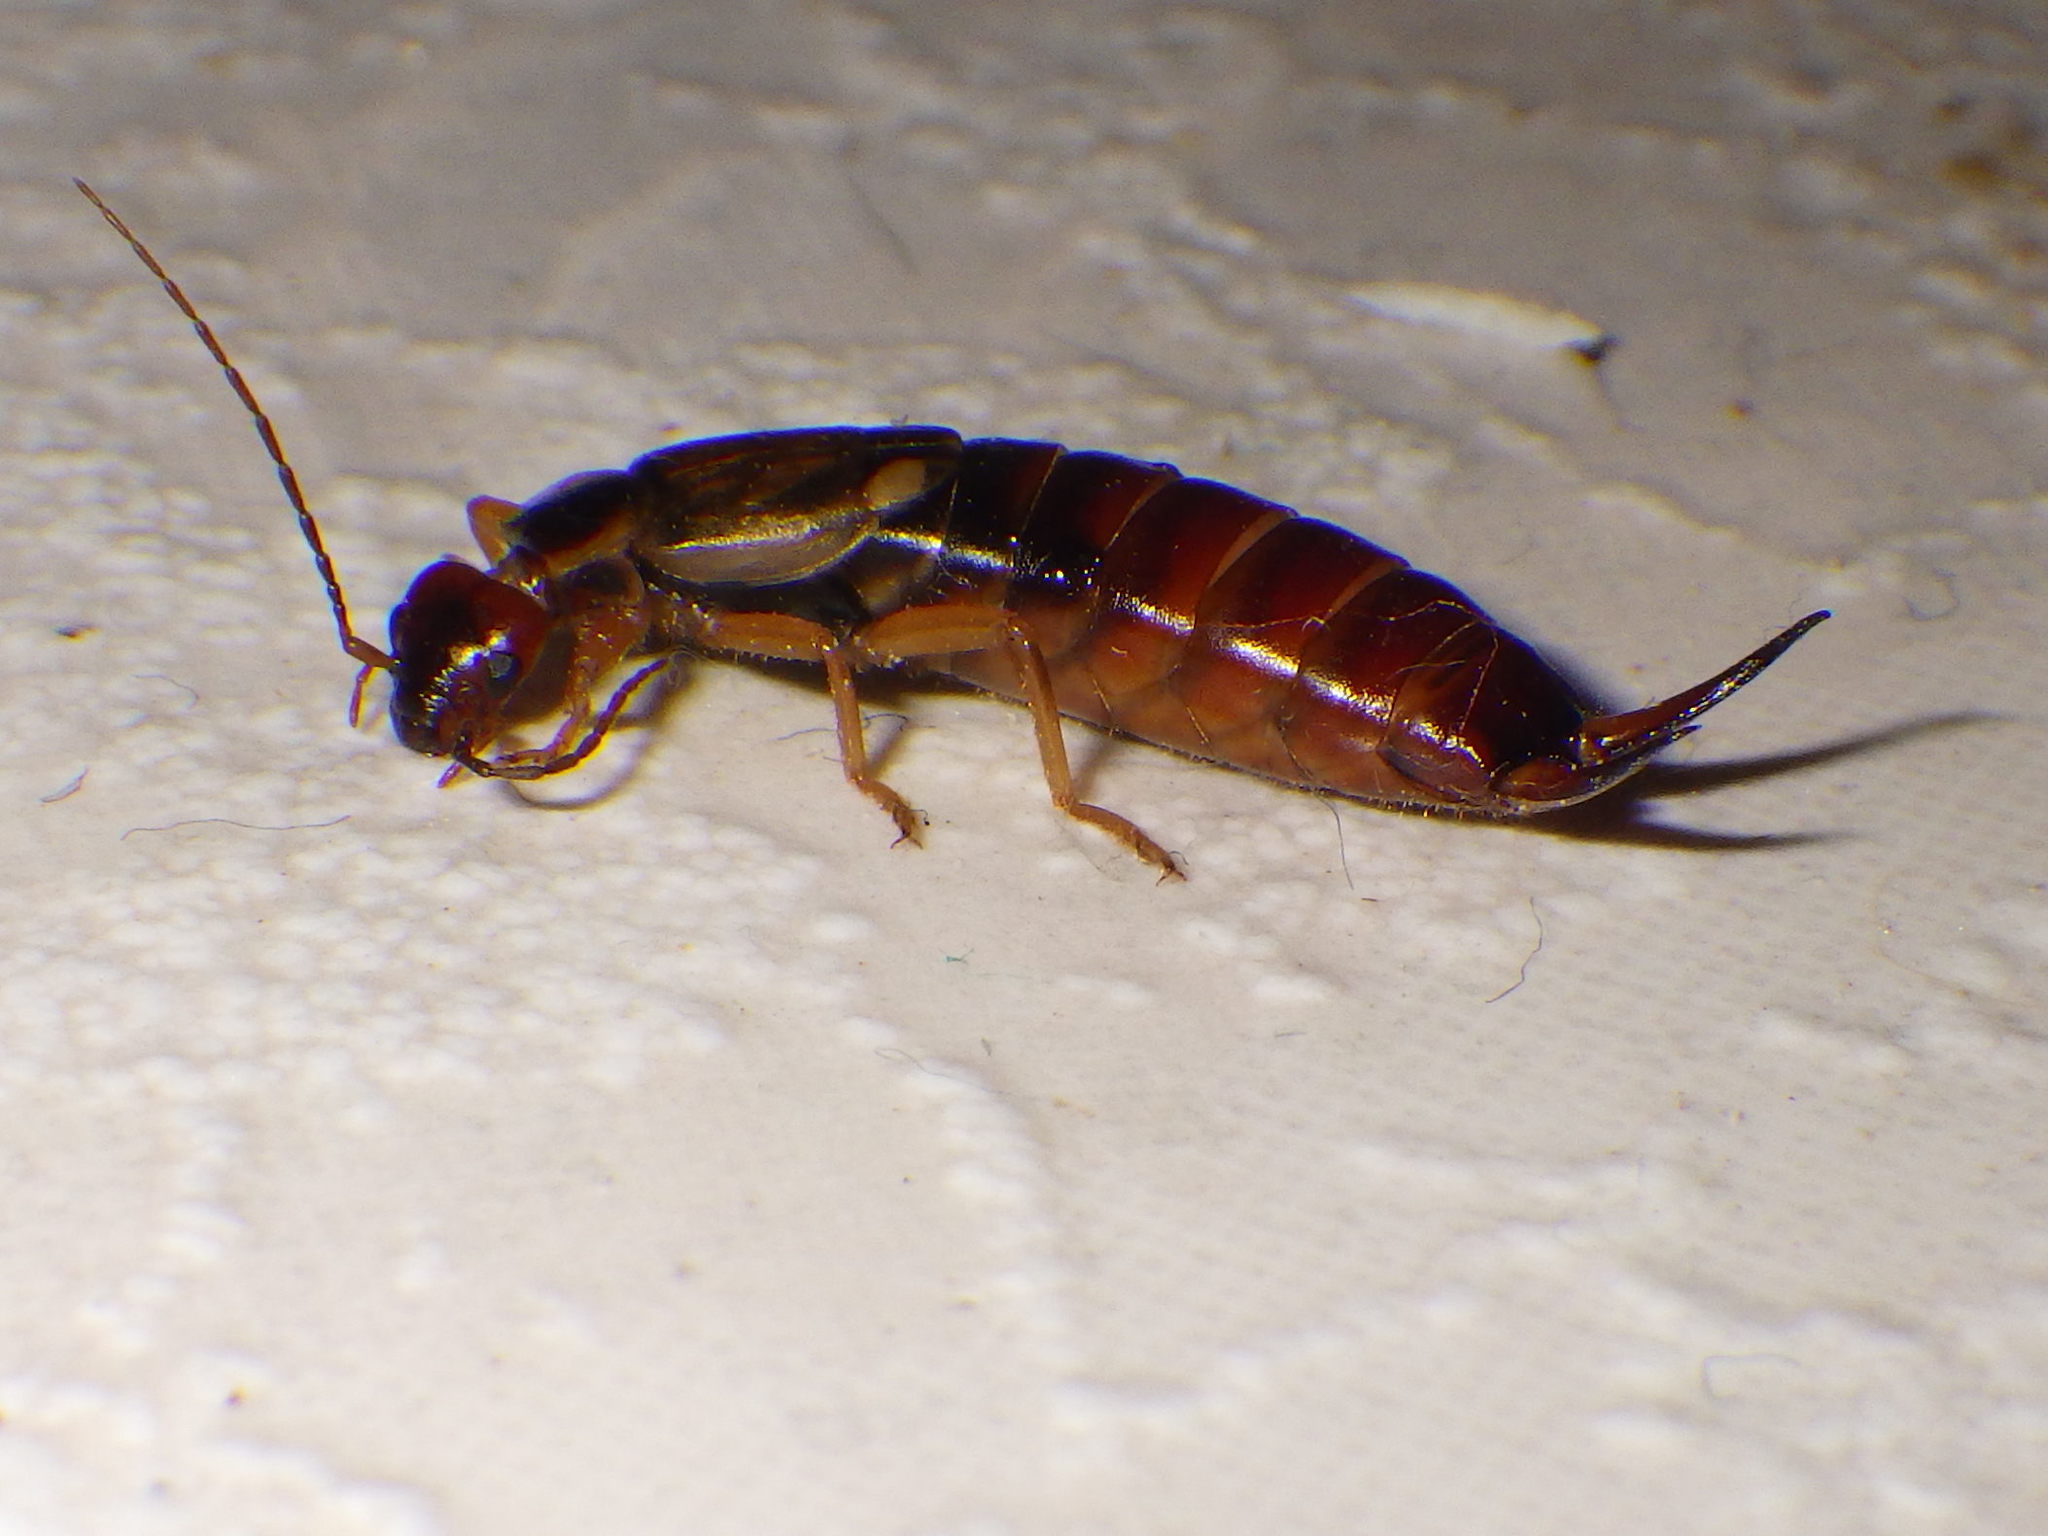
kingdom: Animalia
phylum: Arthropoda
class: Insecta
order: Dermaptera
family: Forficulidae
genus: Forficula
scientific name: Forficula
